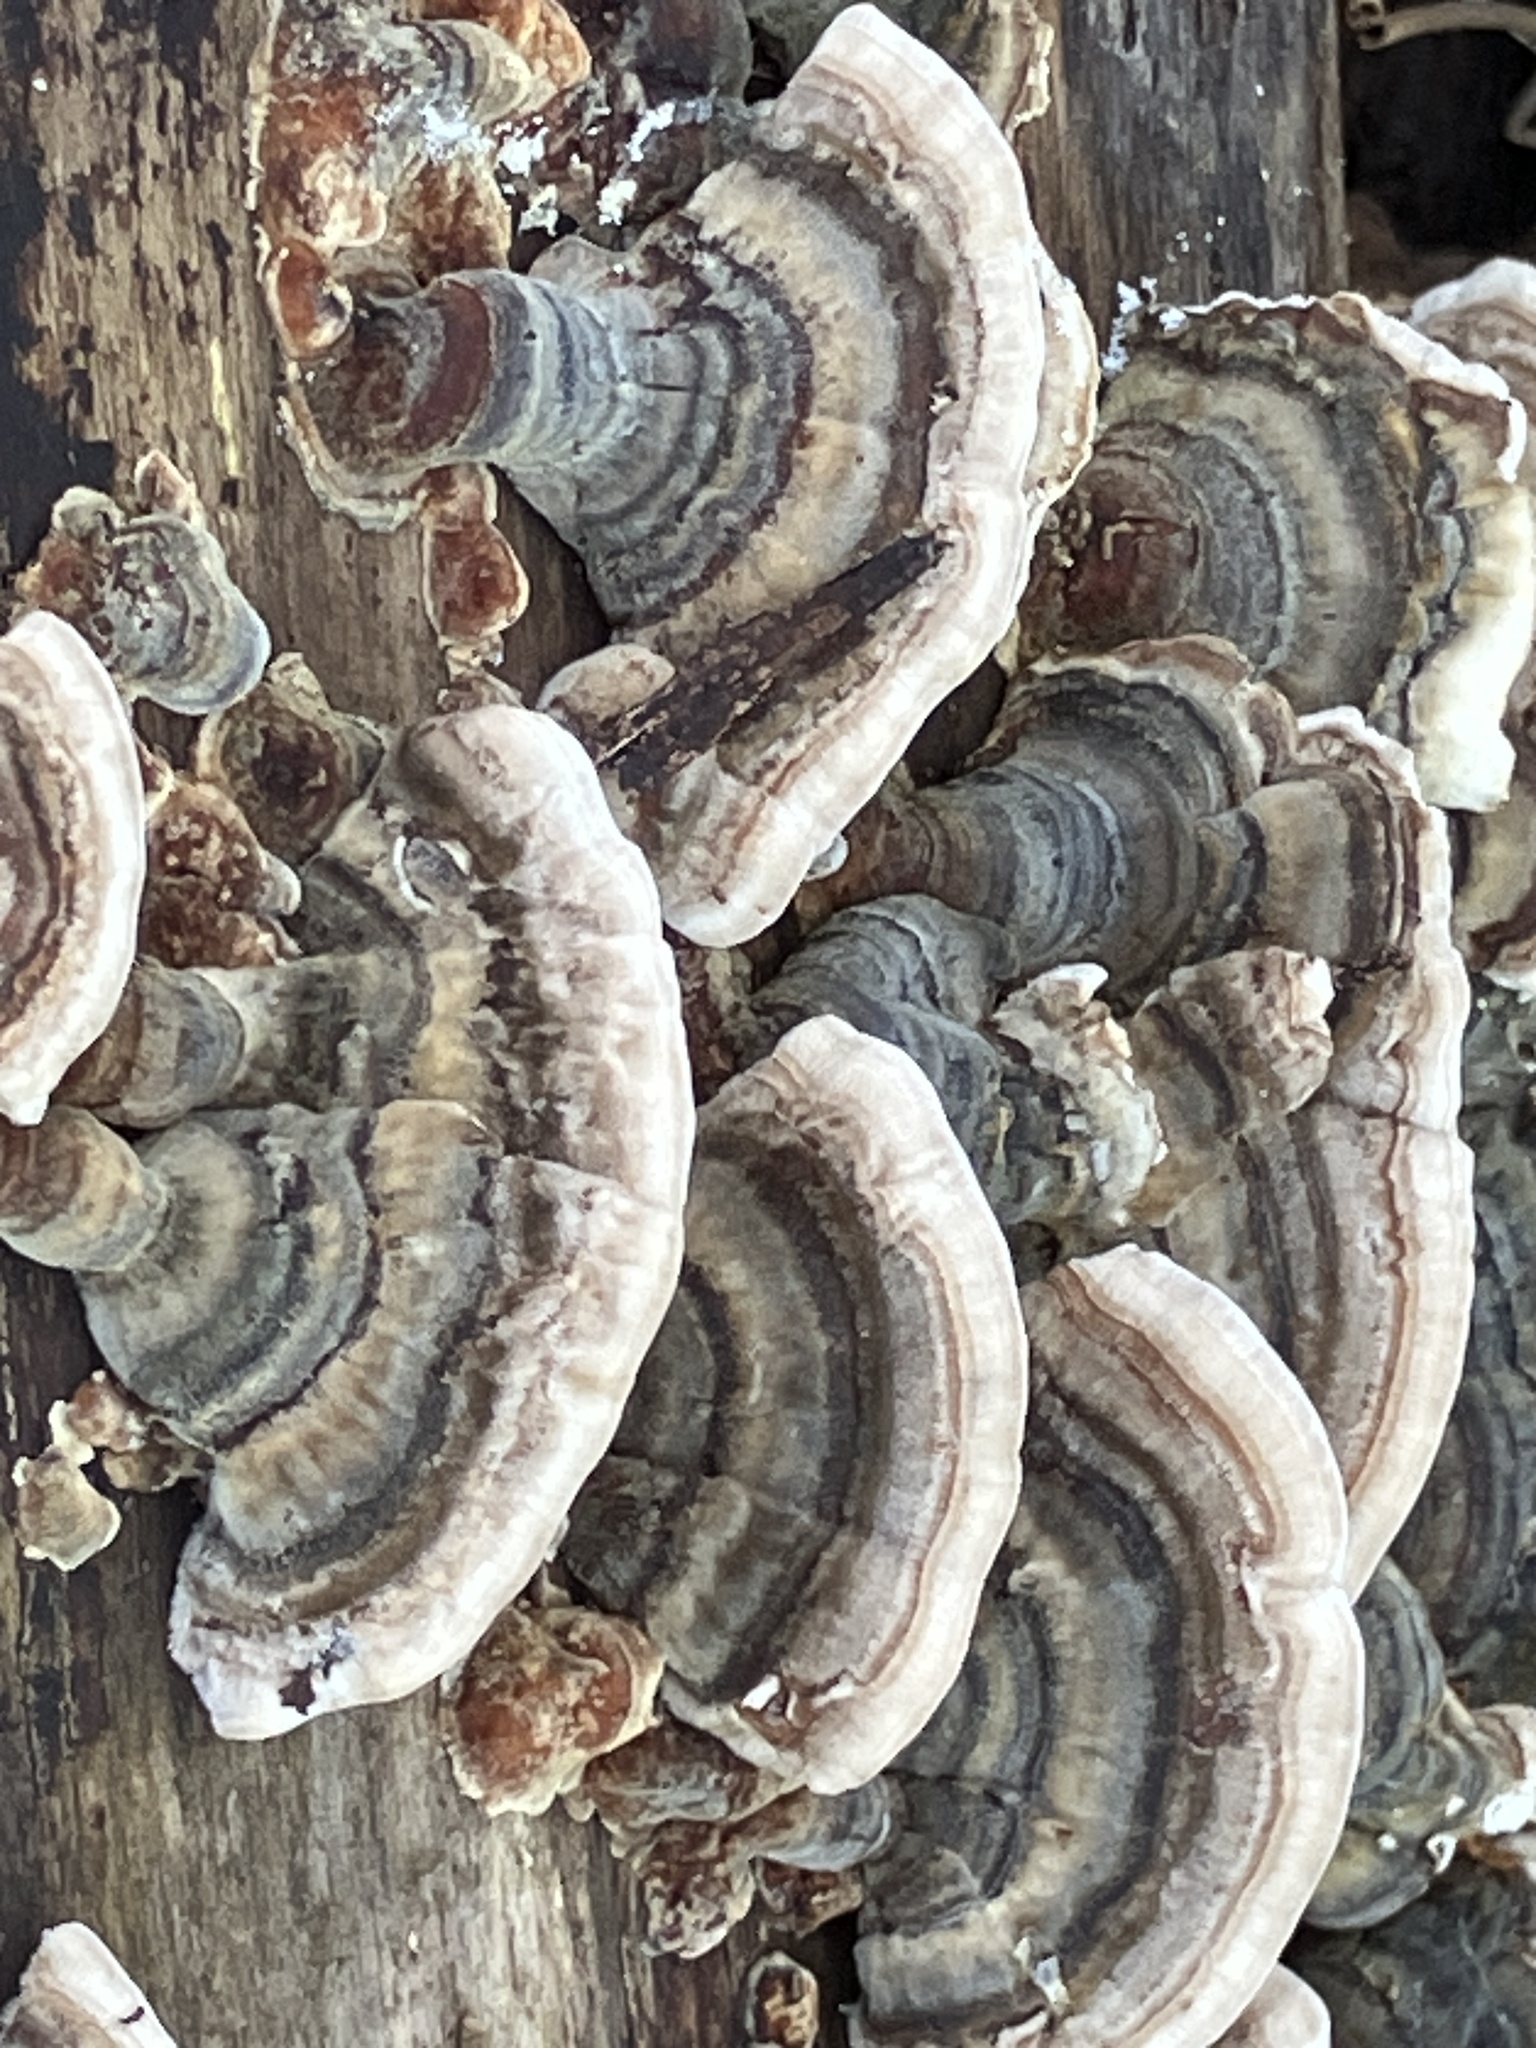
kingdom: Fungi
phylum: Basidiomycota
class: Agaricomycetes
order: Polyporales
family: Polyporaceae
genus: Trametes
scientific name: Trametes versicolor
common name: Turkeytail
